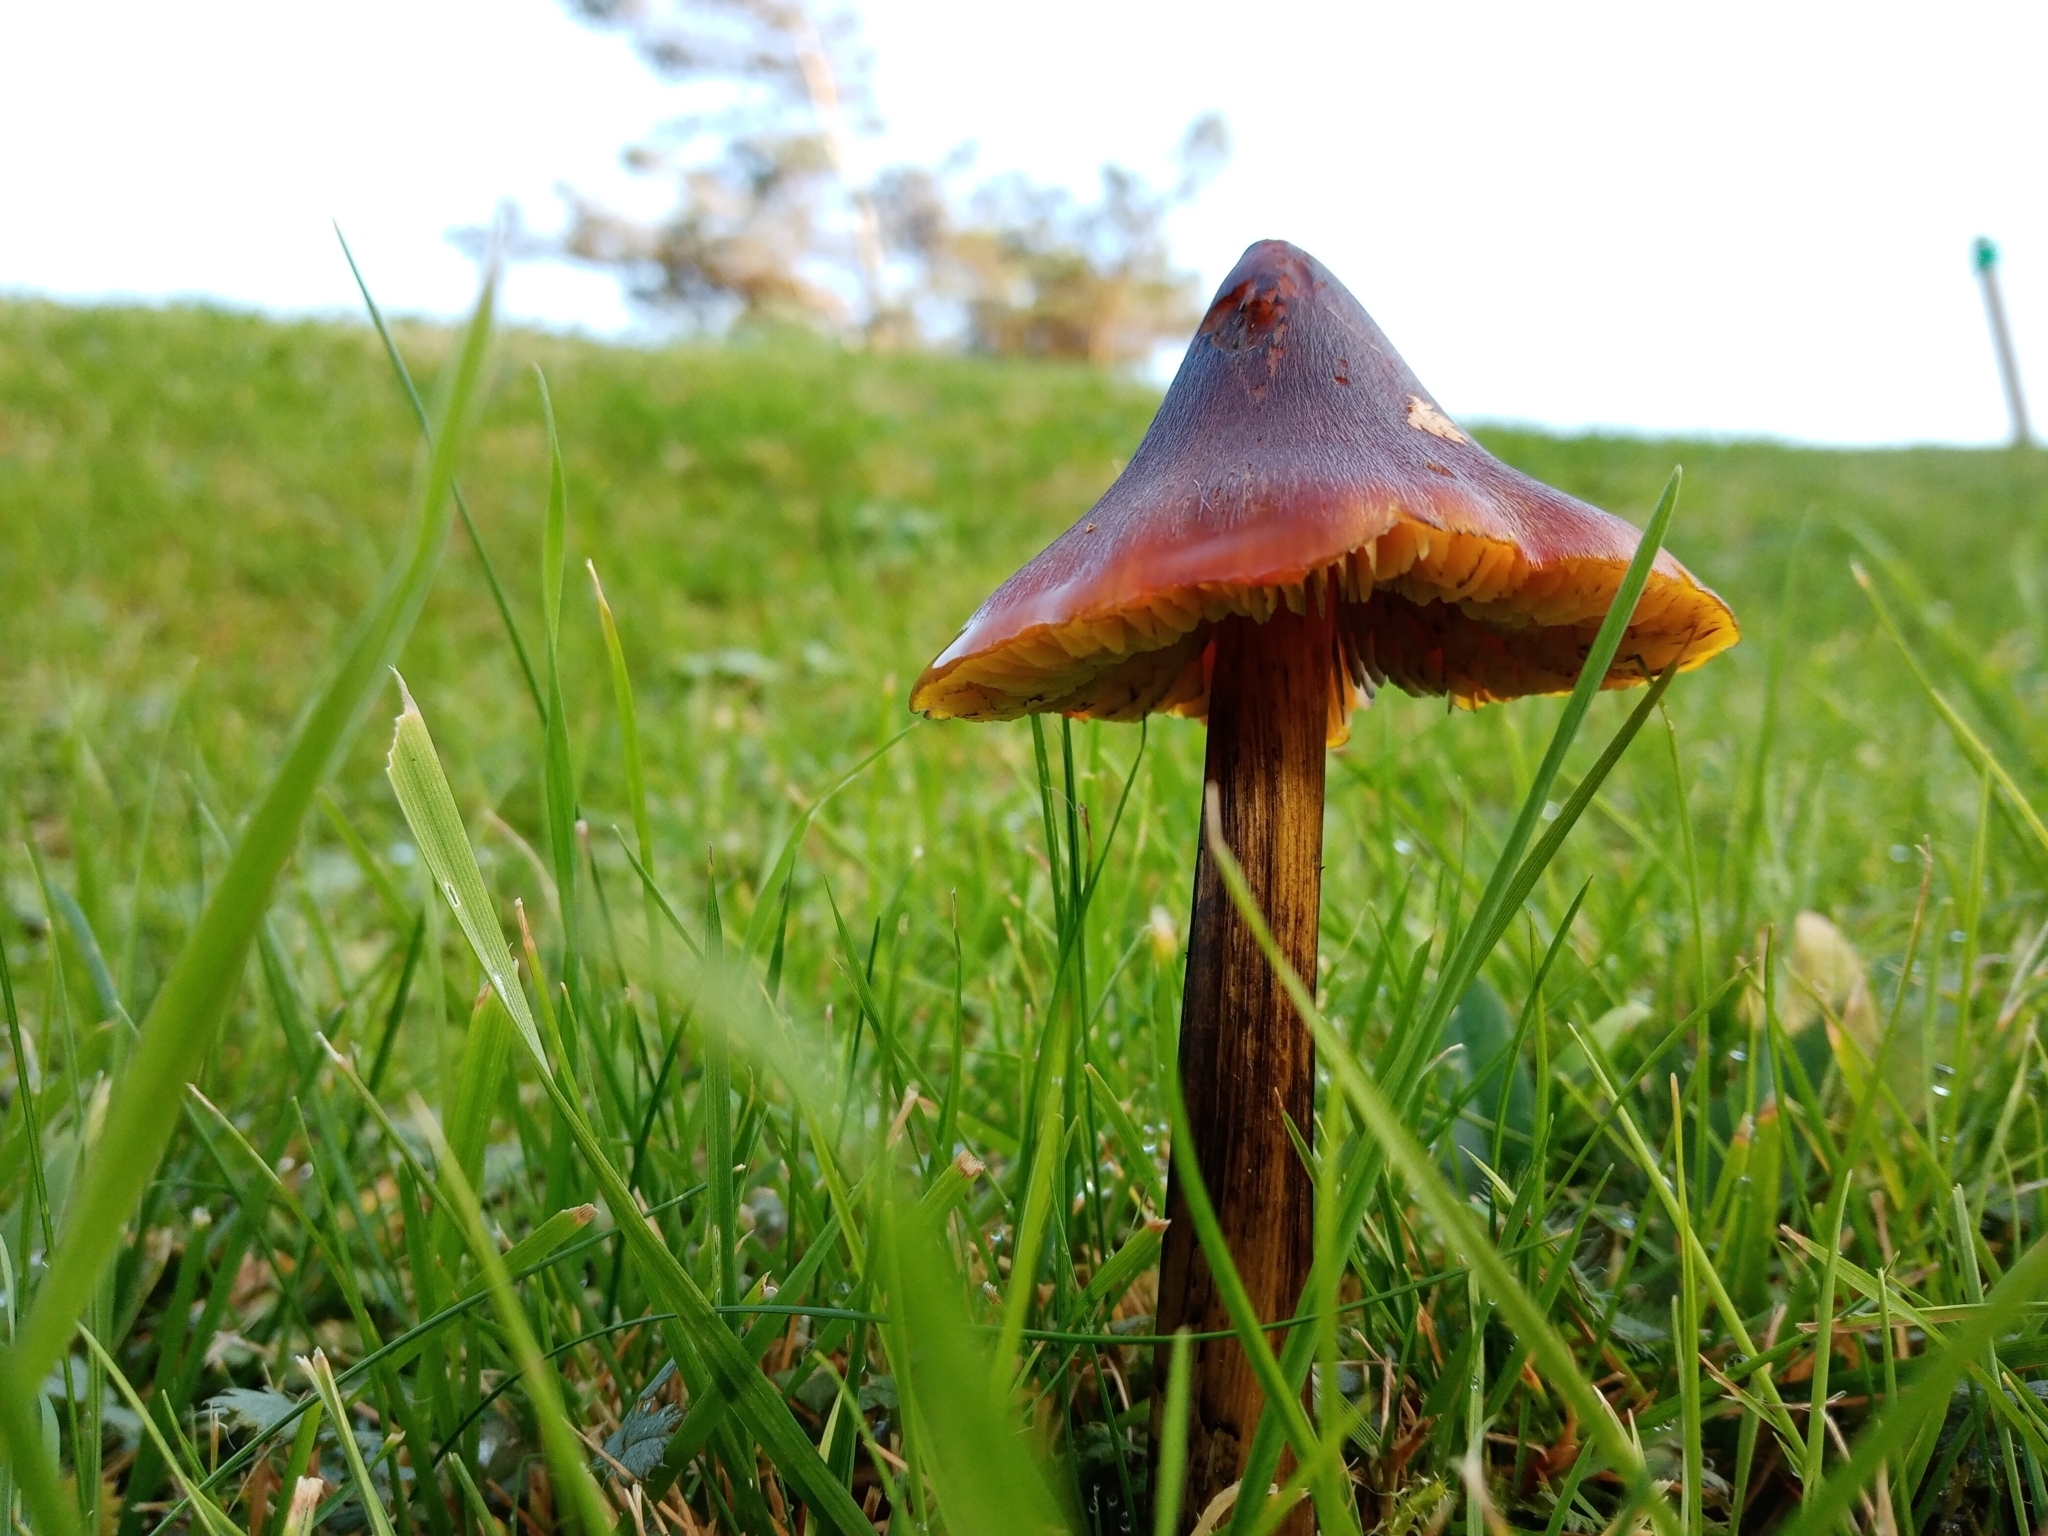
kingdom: Fungi
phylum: Basidiomycota
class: Agaricomycetes
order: Agaricales
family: Hygrophoraceae
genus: Hygrocybe
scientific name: Hygrocybe conica
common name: Blackening wax-cap
